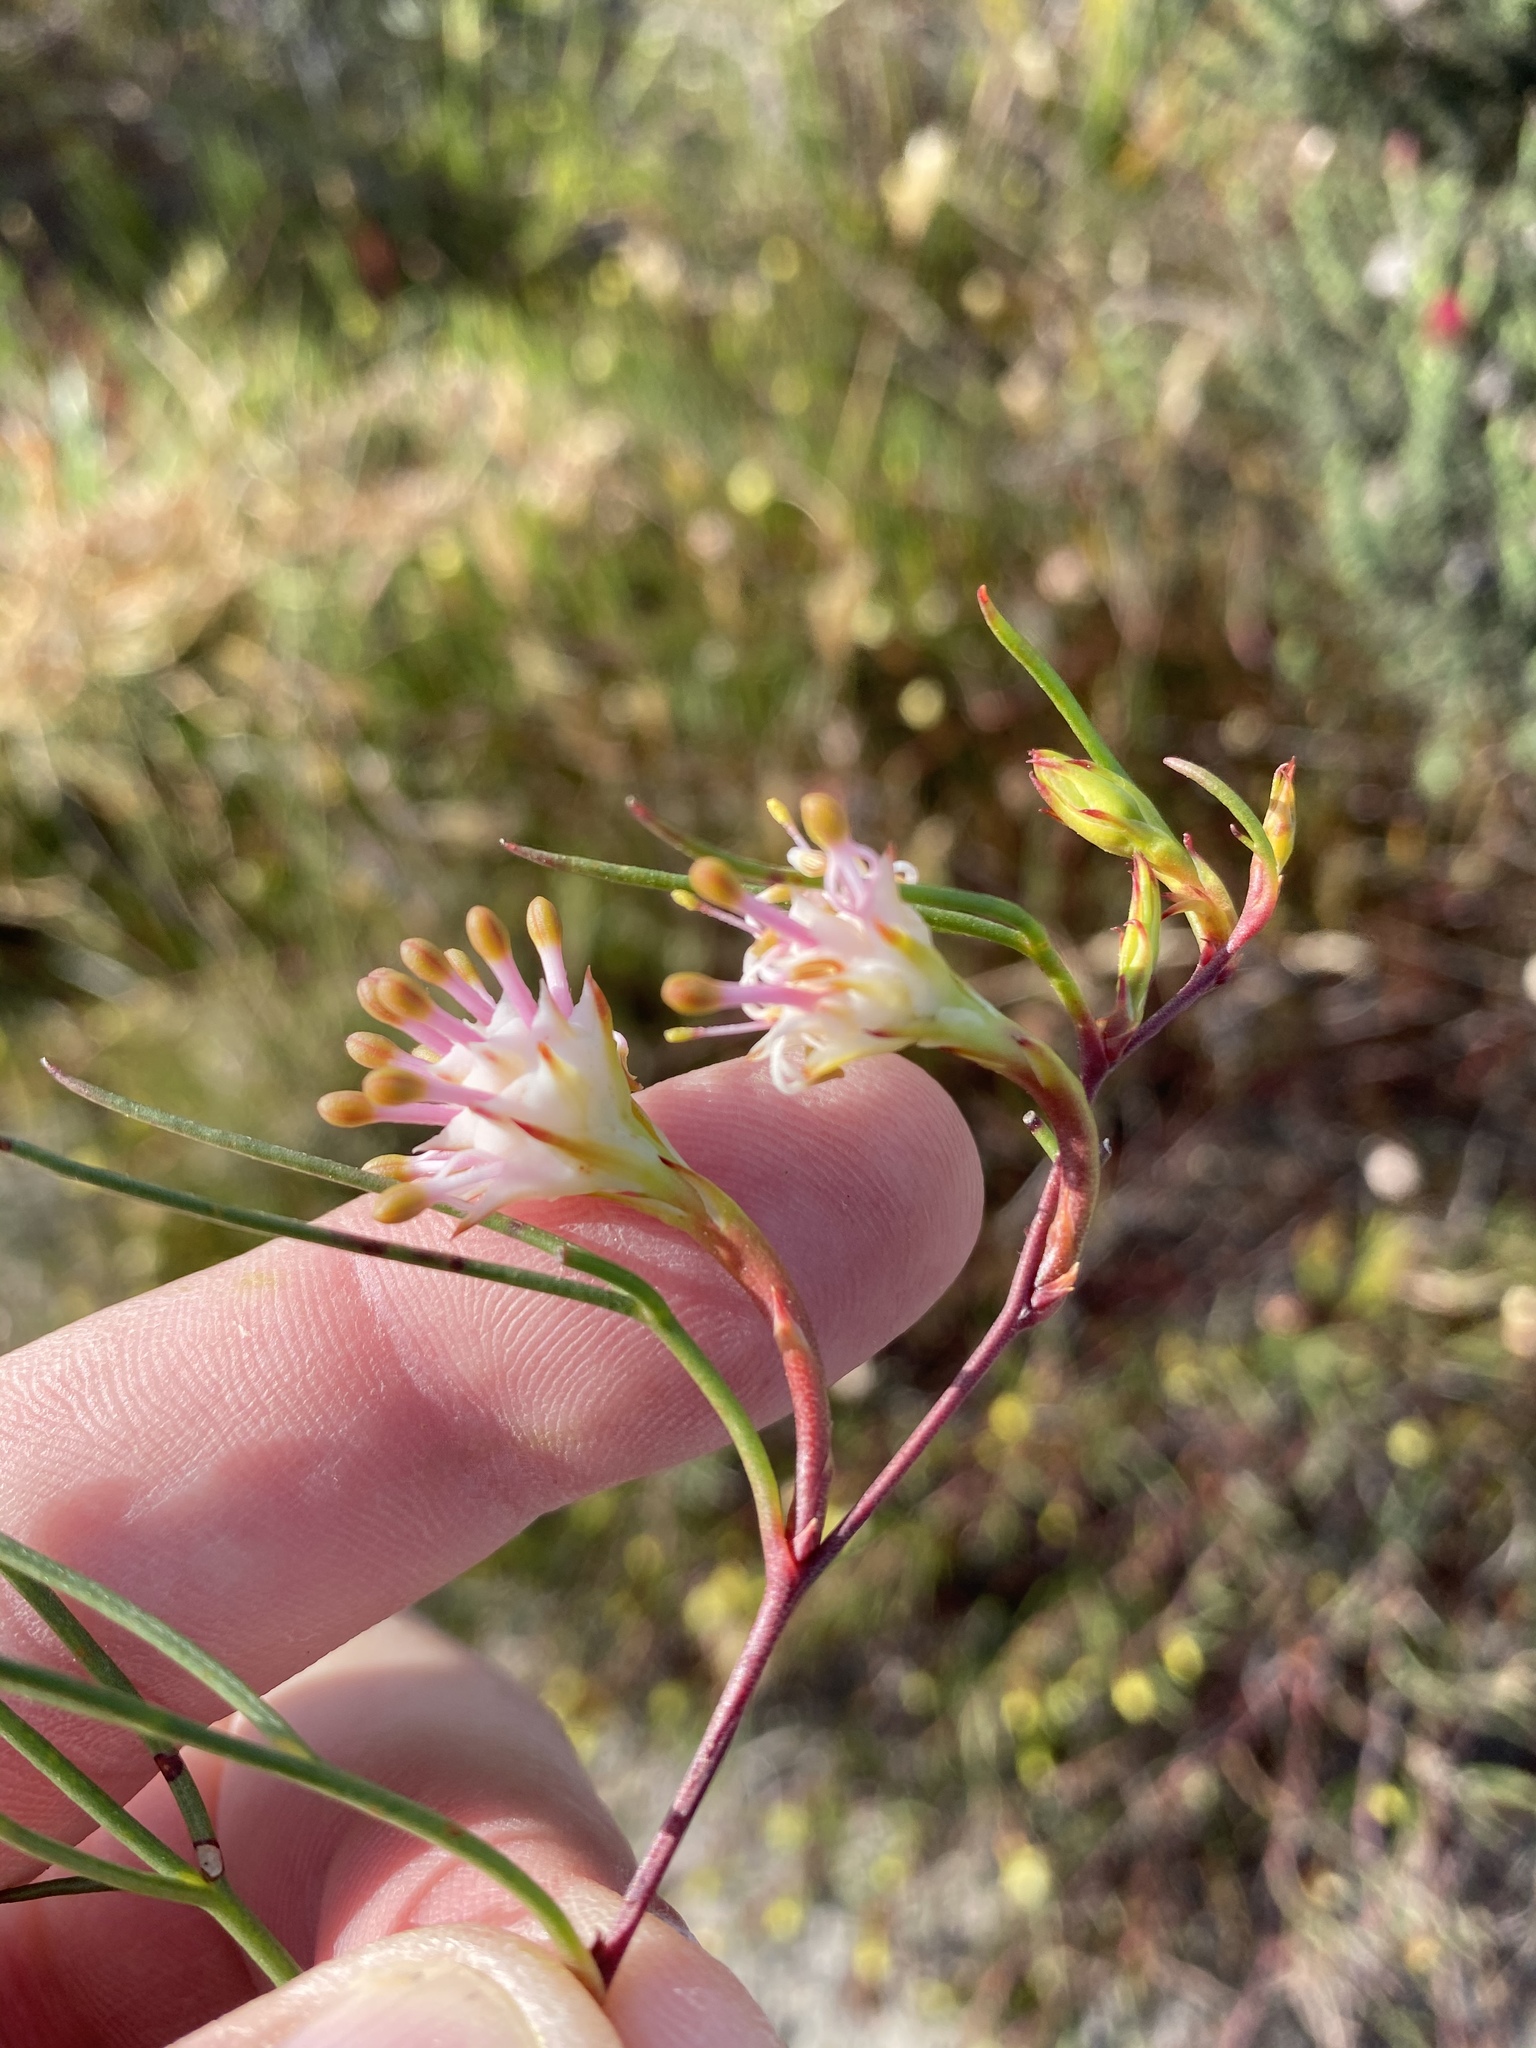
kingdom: Plantae
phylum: Tracheophyta
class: Magnoliopsida
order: Proteales
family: Proteaceae
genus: Serruria
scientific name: Serruria flagellifolia
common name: Houwhoek spiderhead
